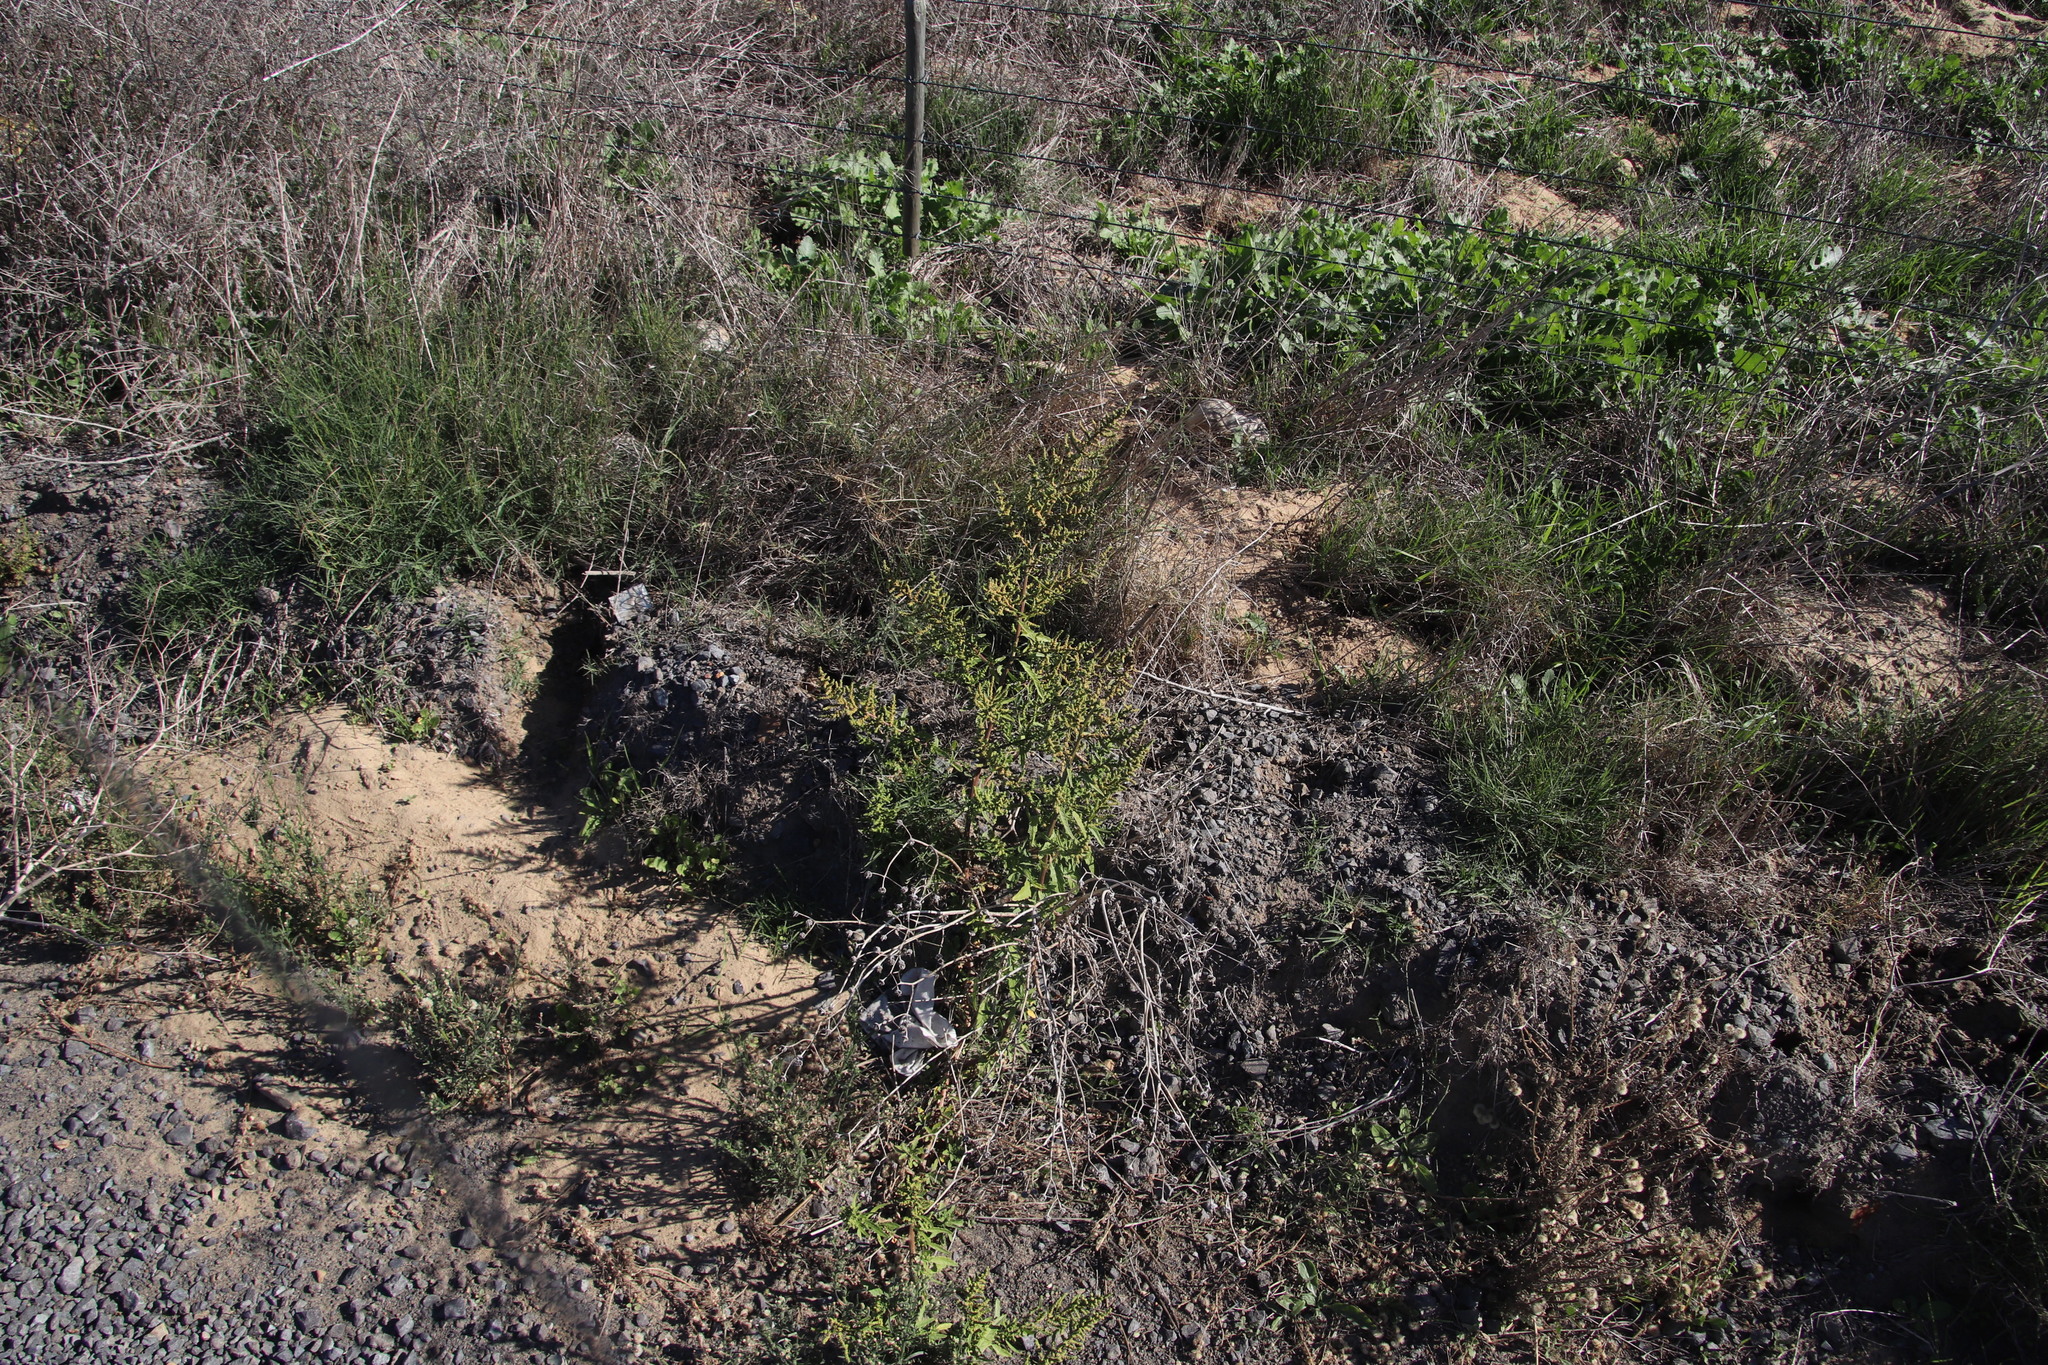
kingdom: Plantae
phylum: Tracheophyta
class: Magnoliopsida
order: Caryophyllales
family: Amaranthaceae
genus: Dysphania
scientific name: Dysphania ambrosioides
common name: Wormseed
